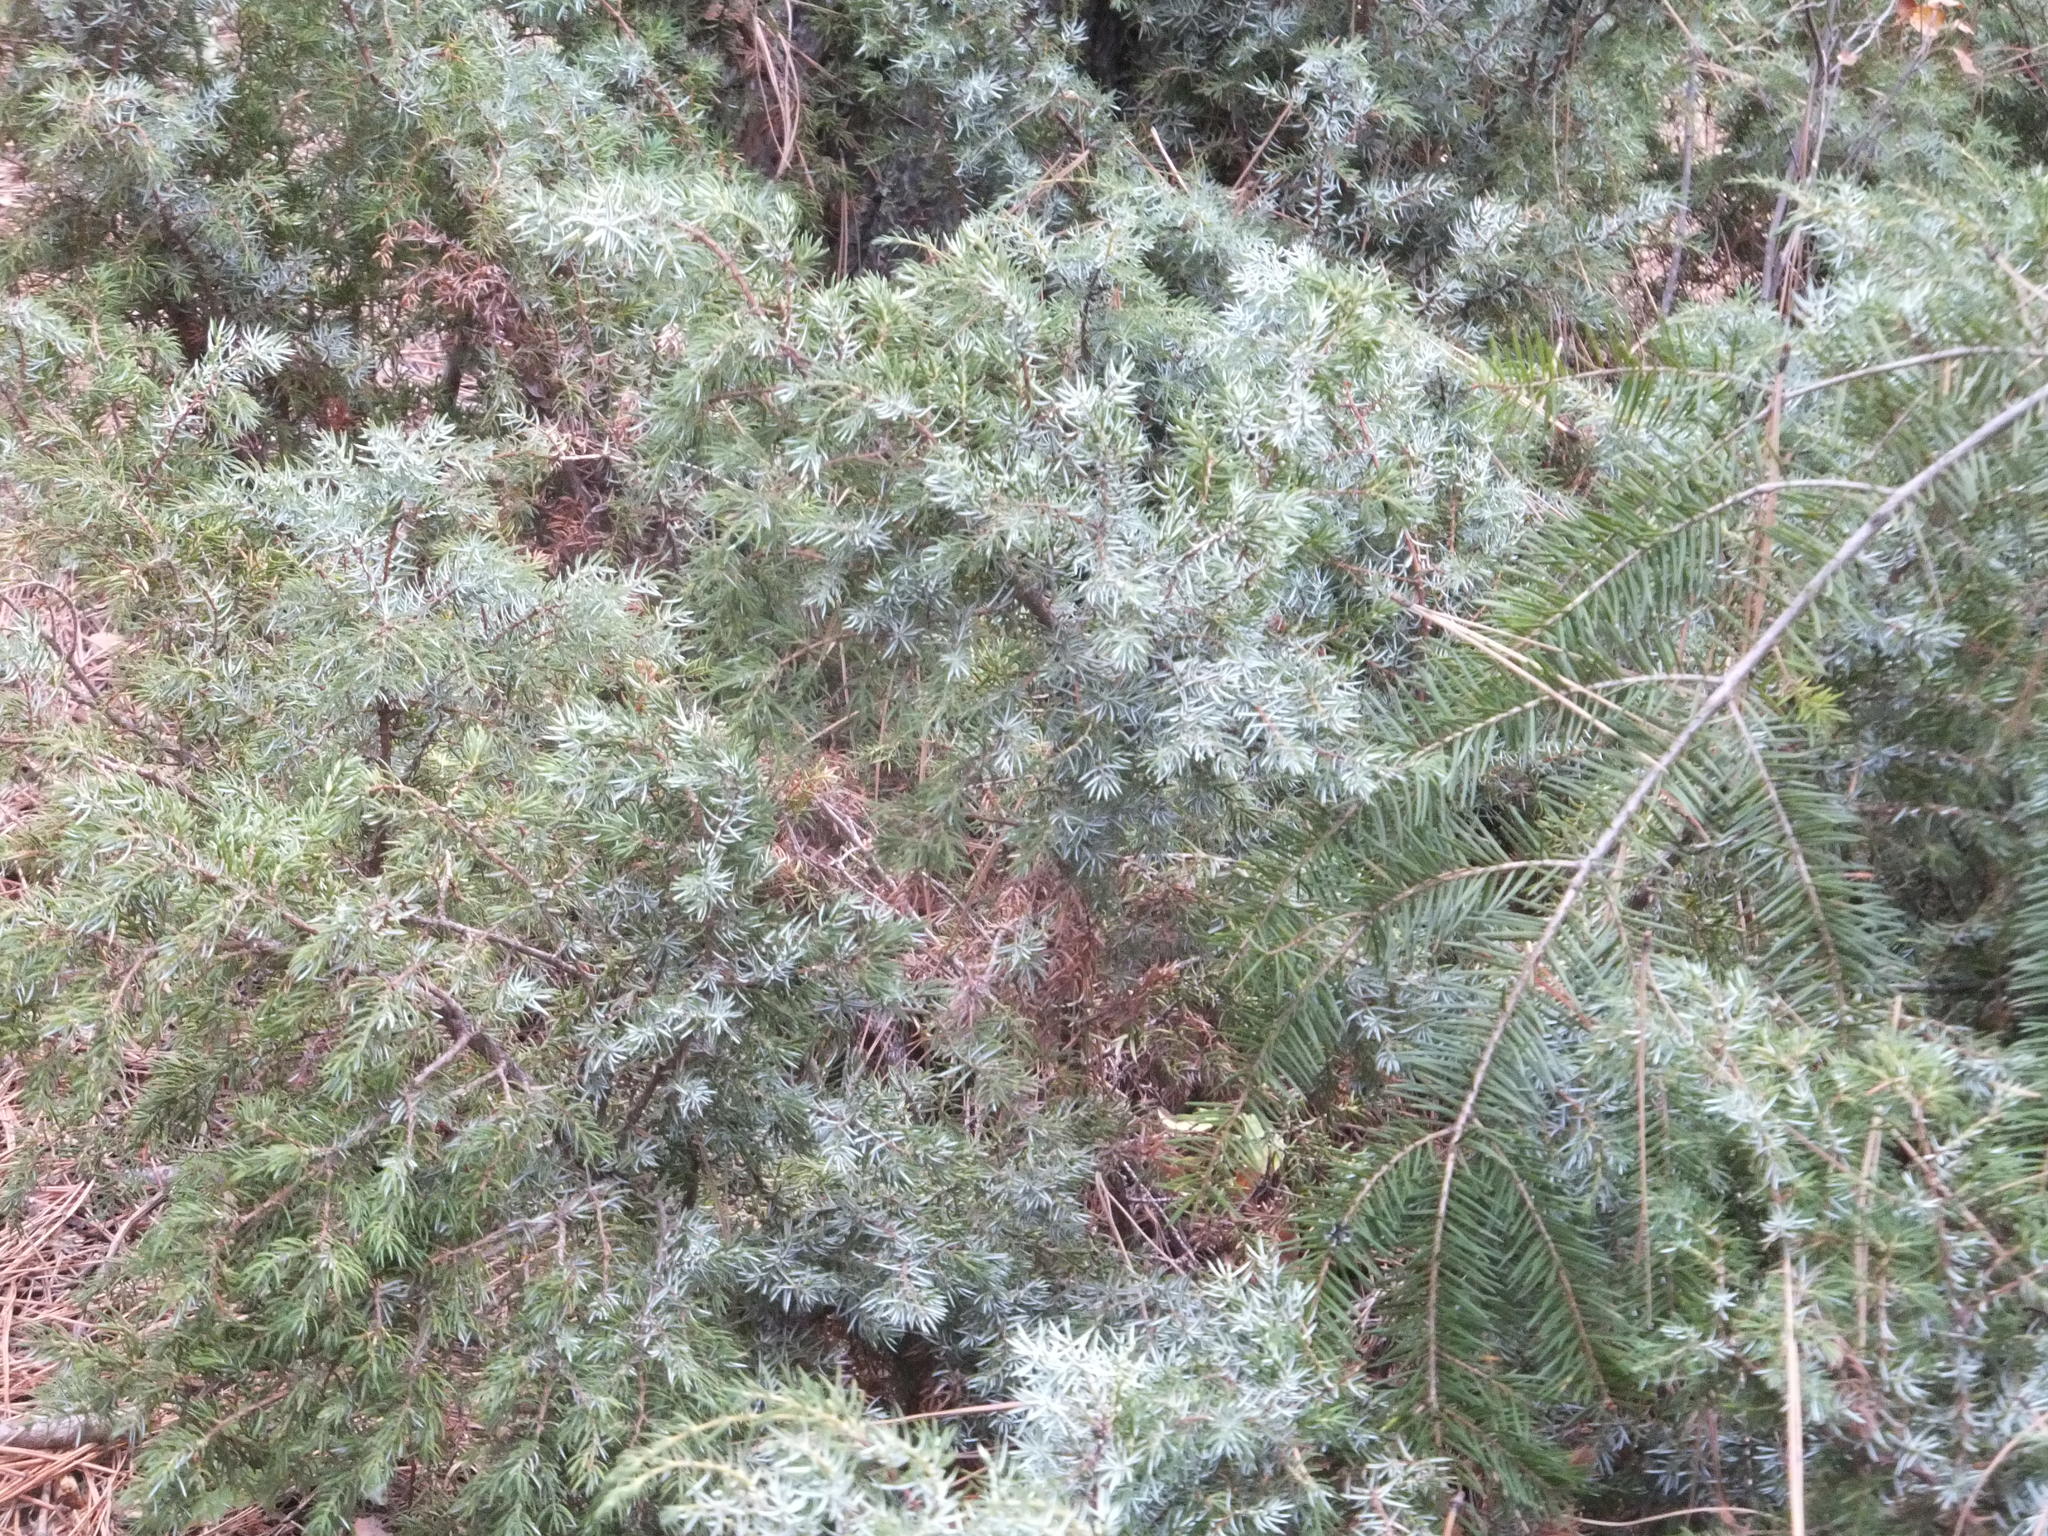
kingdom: Plantae
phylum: Tracheophyta
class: Pinopsida
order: Pinales
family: Cupressaceae
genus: Juniperus
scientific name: Juniperus communis
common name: Common juniper
